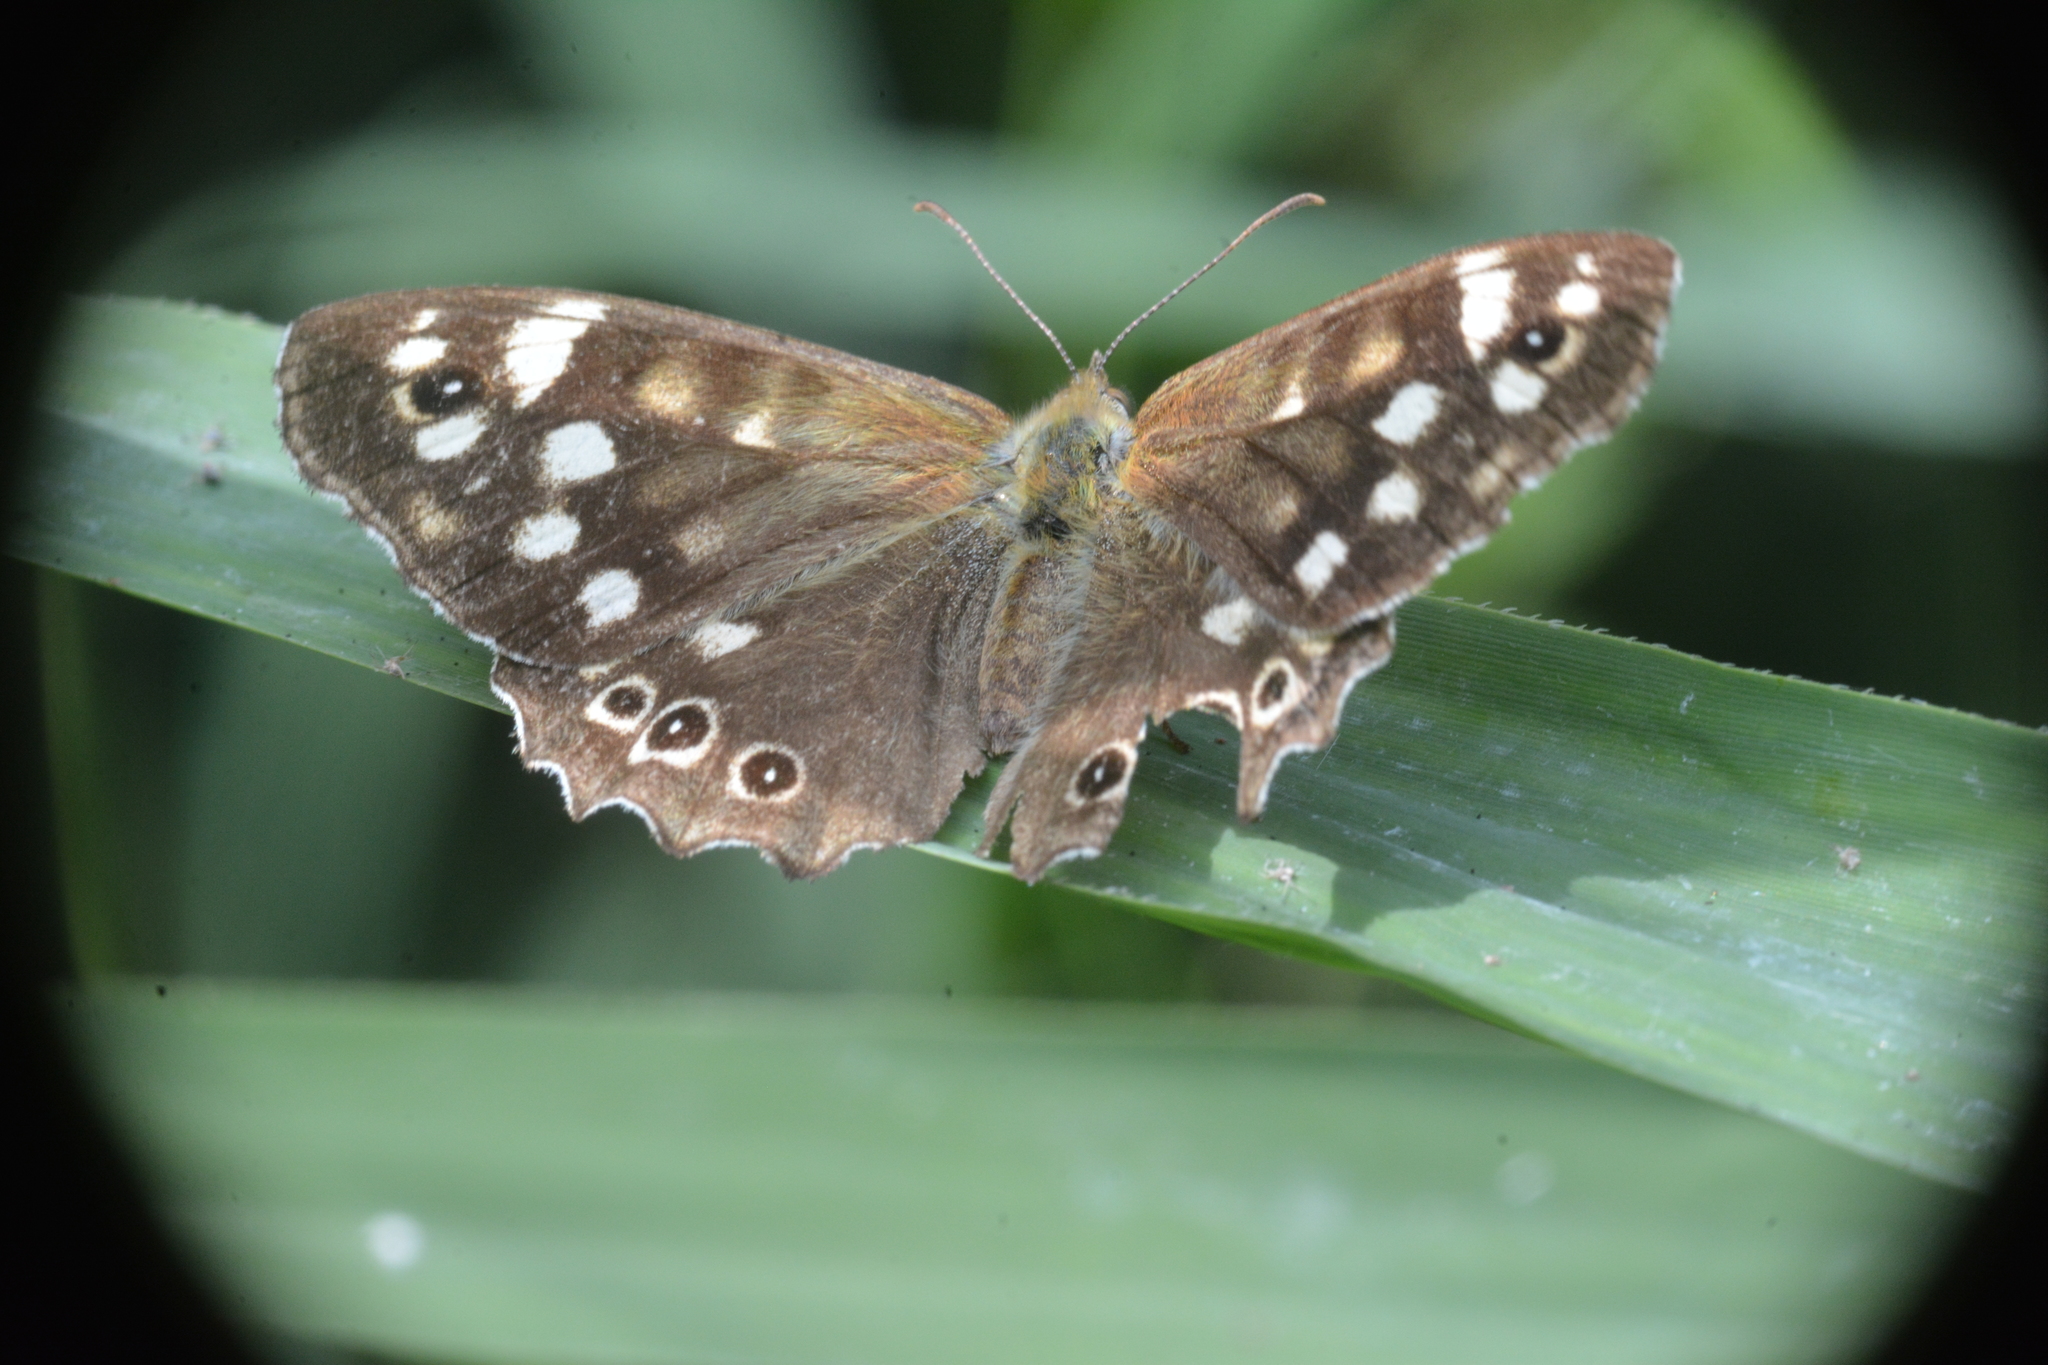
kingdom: Animalia
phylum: Arthropoda
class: Insecta
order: Lepidoptera
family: Nymphalidae
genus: Pararge
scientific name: Pararge aegeria
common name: Speckled wood
